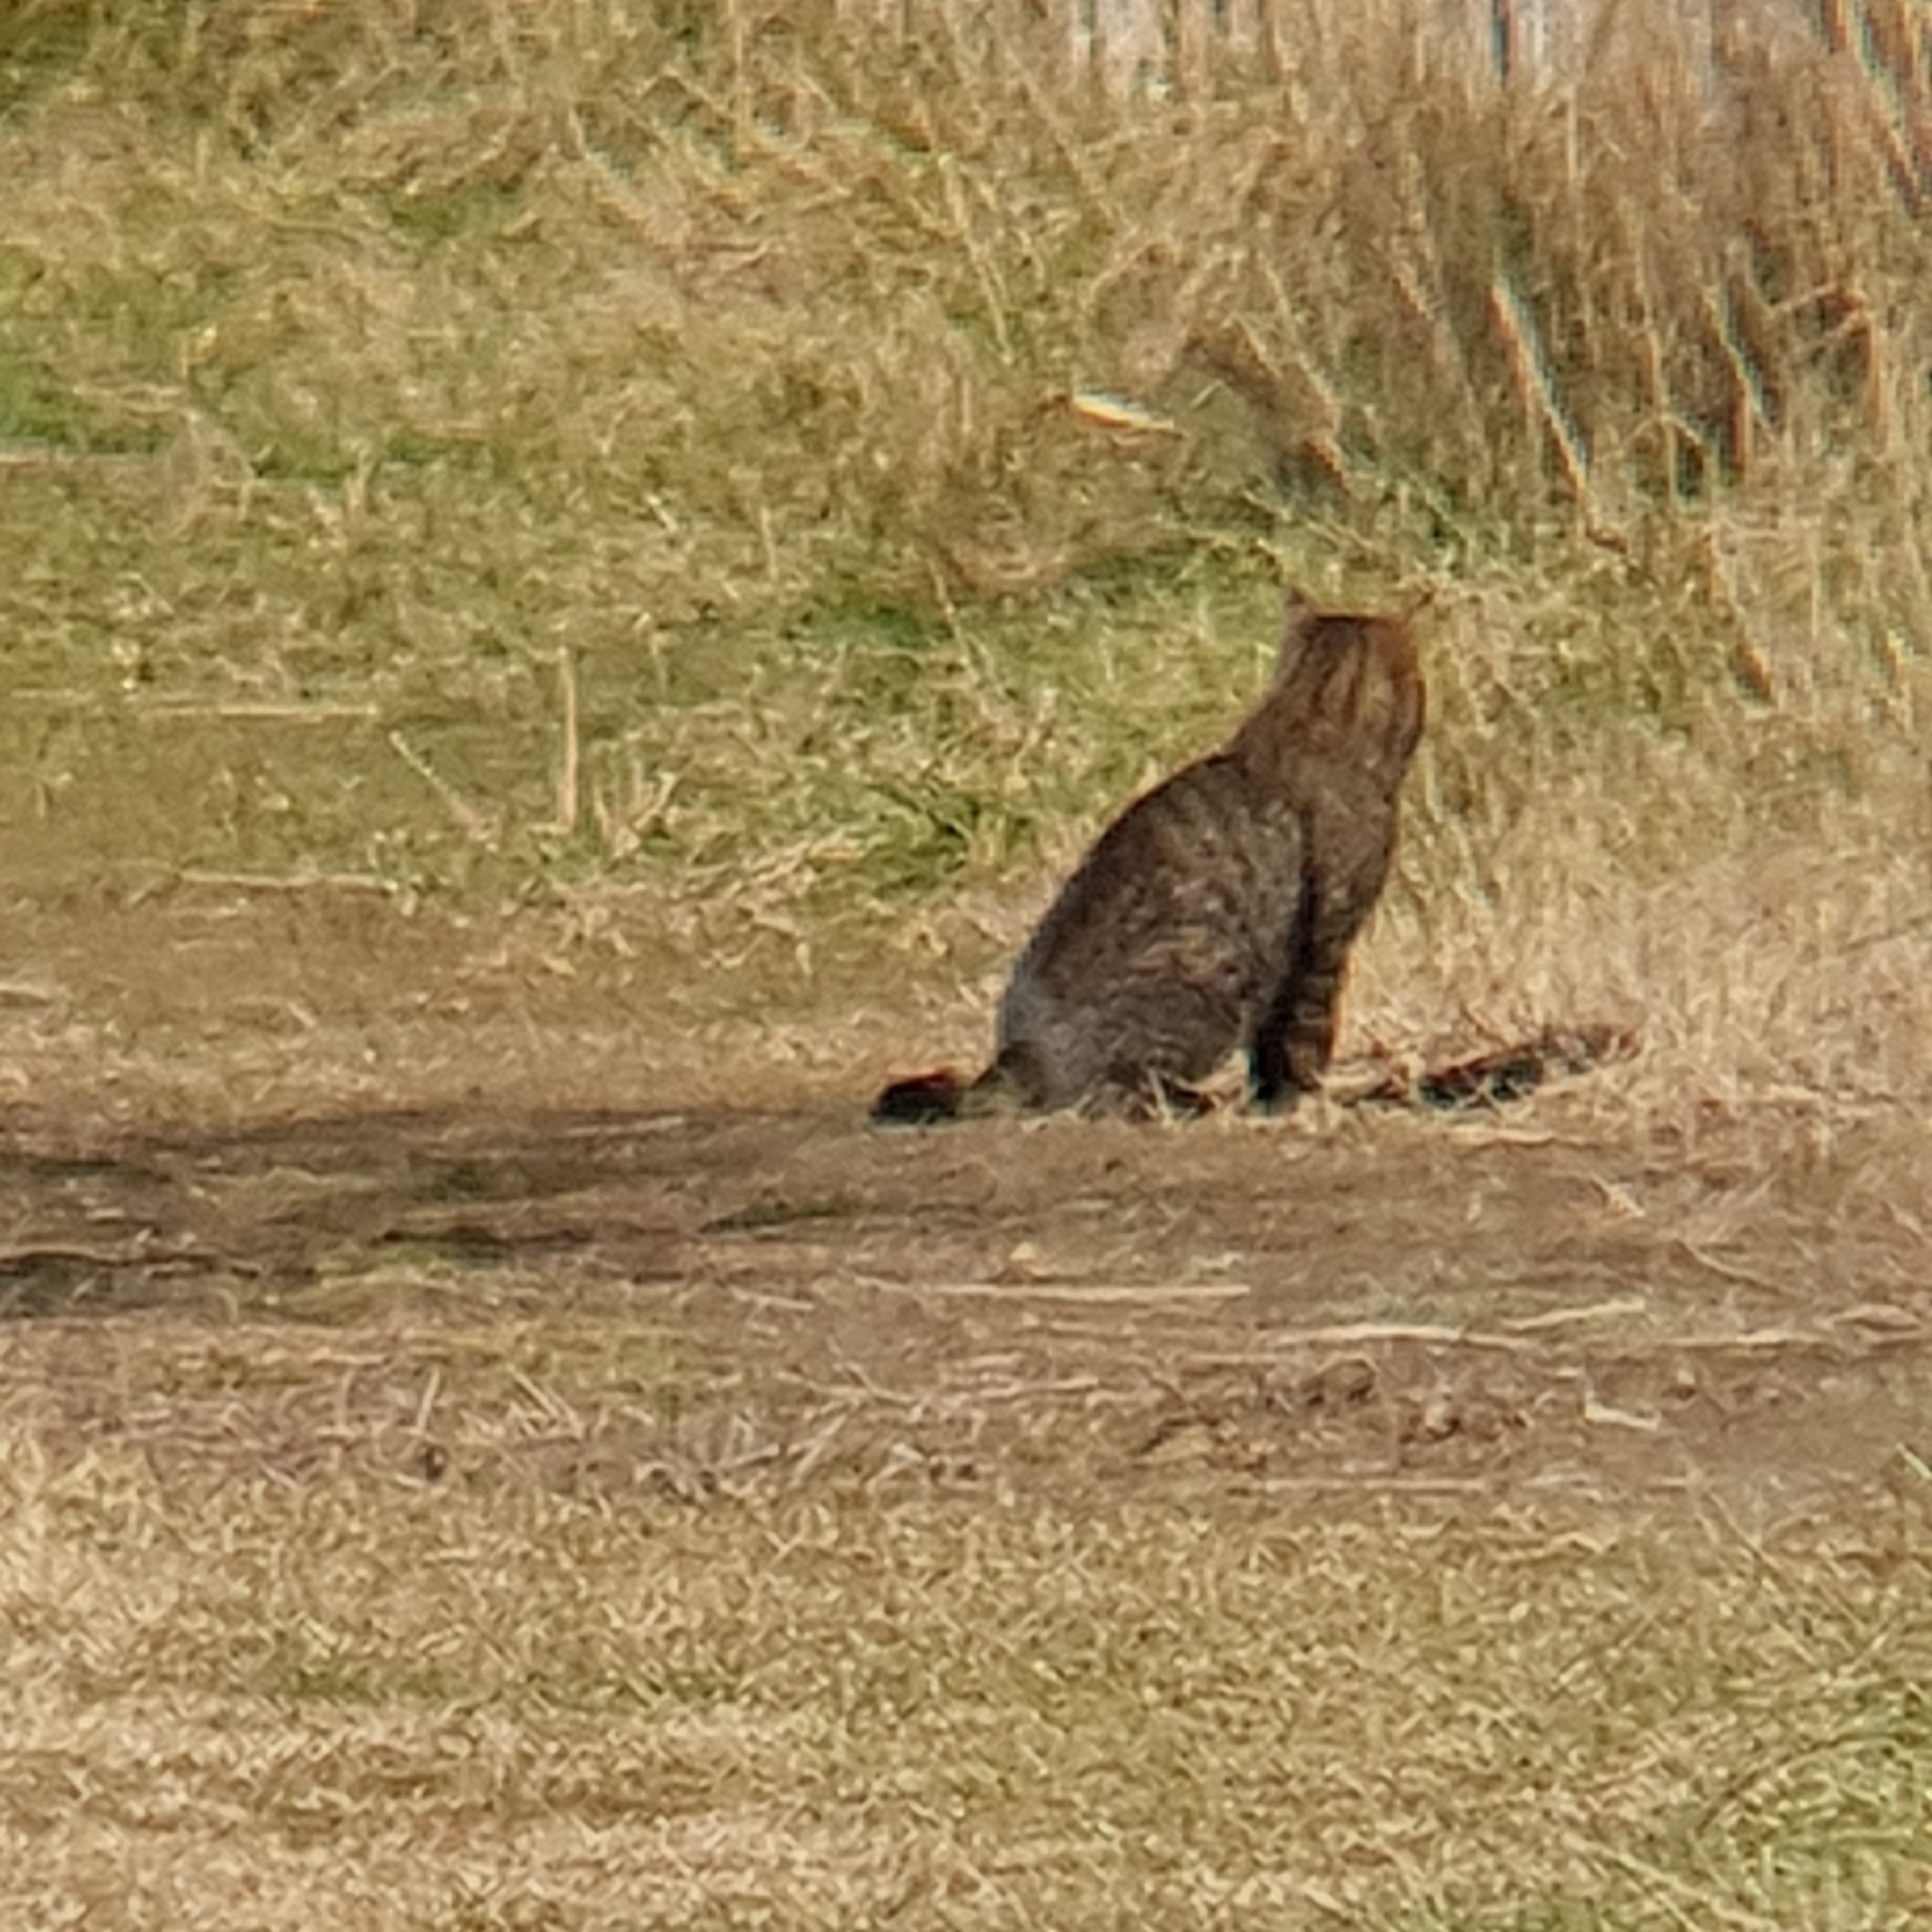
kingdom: Animalia
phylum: Chordata
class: Mammalia
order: Carnivora
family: Felidae
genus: Felis
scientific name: Felis catus
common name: Domestic cat
